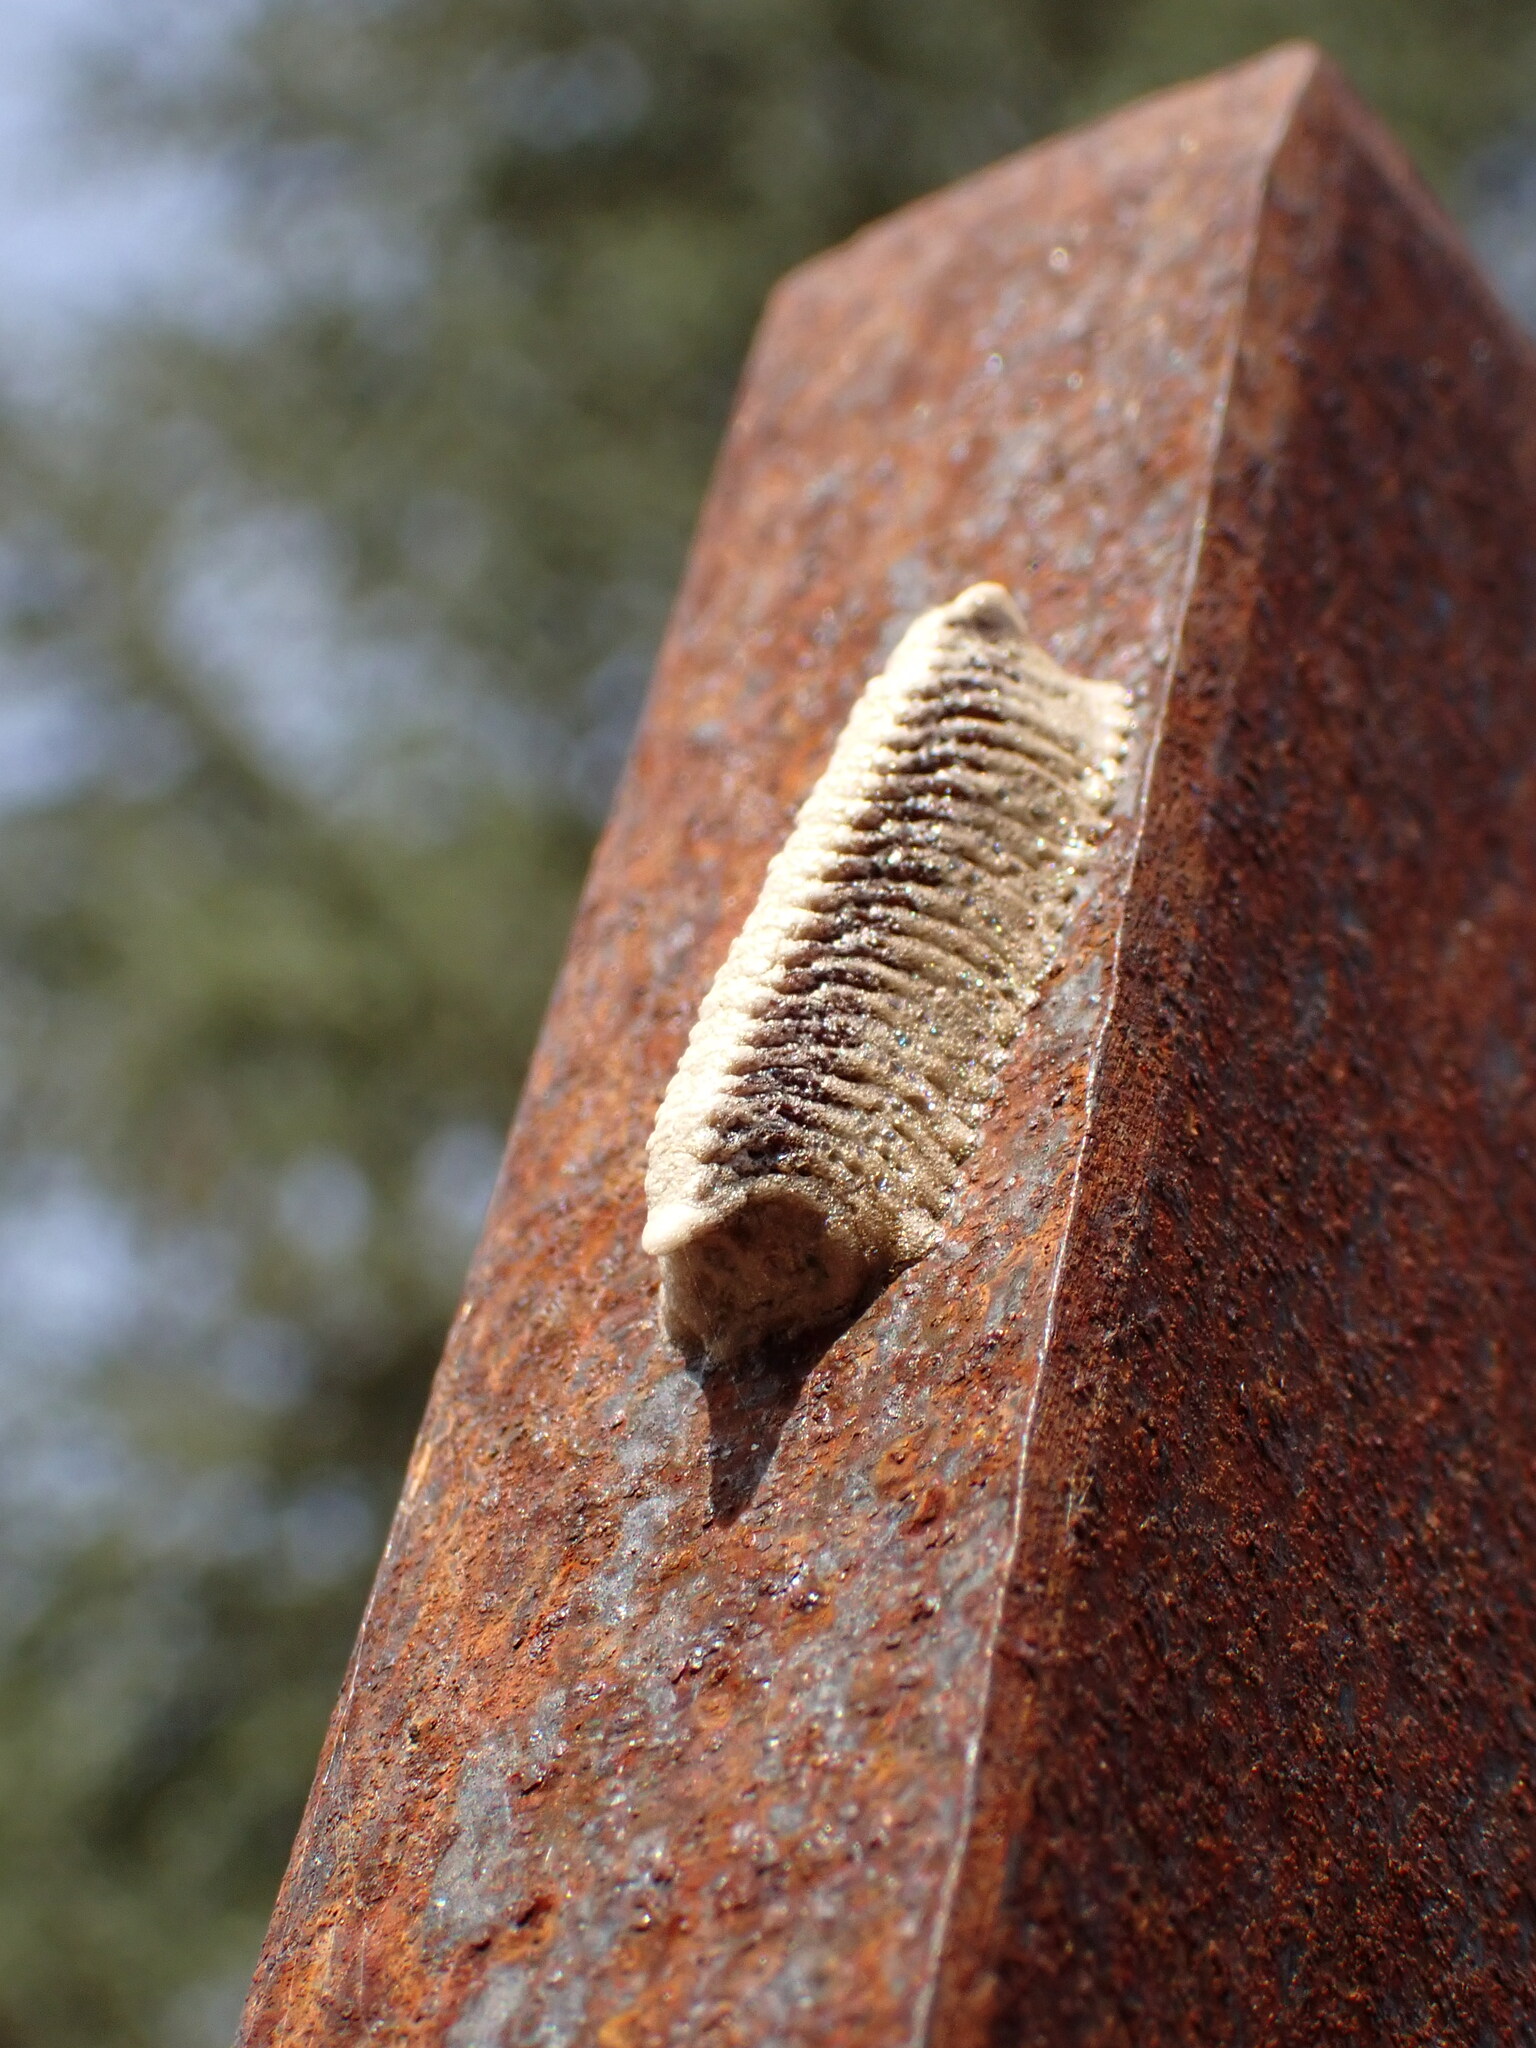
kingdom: Animalia
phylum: Arthropoda
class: Insecta
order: Mantodea
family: Eremiaphilidae
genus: Iris
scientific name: Iris oratoria
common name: Mediterranean mantis
